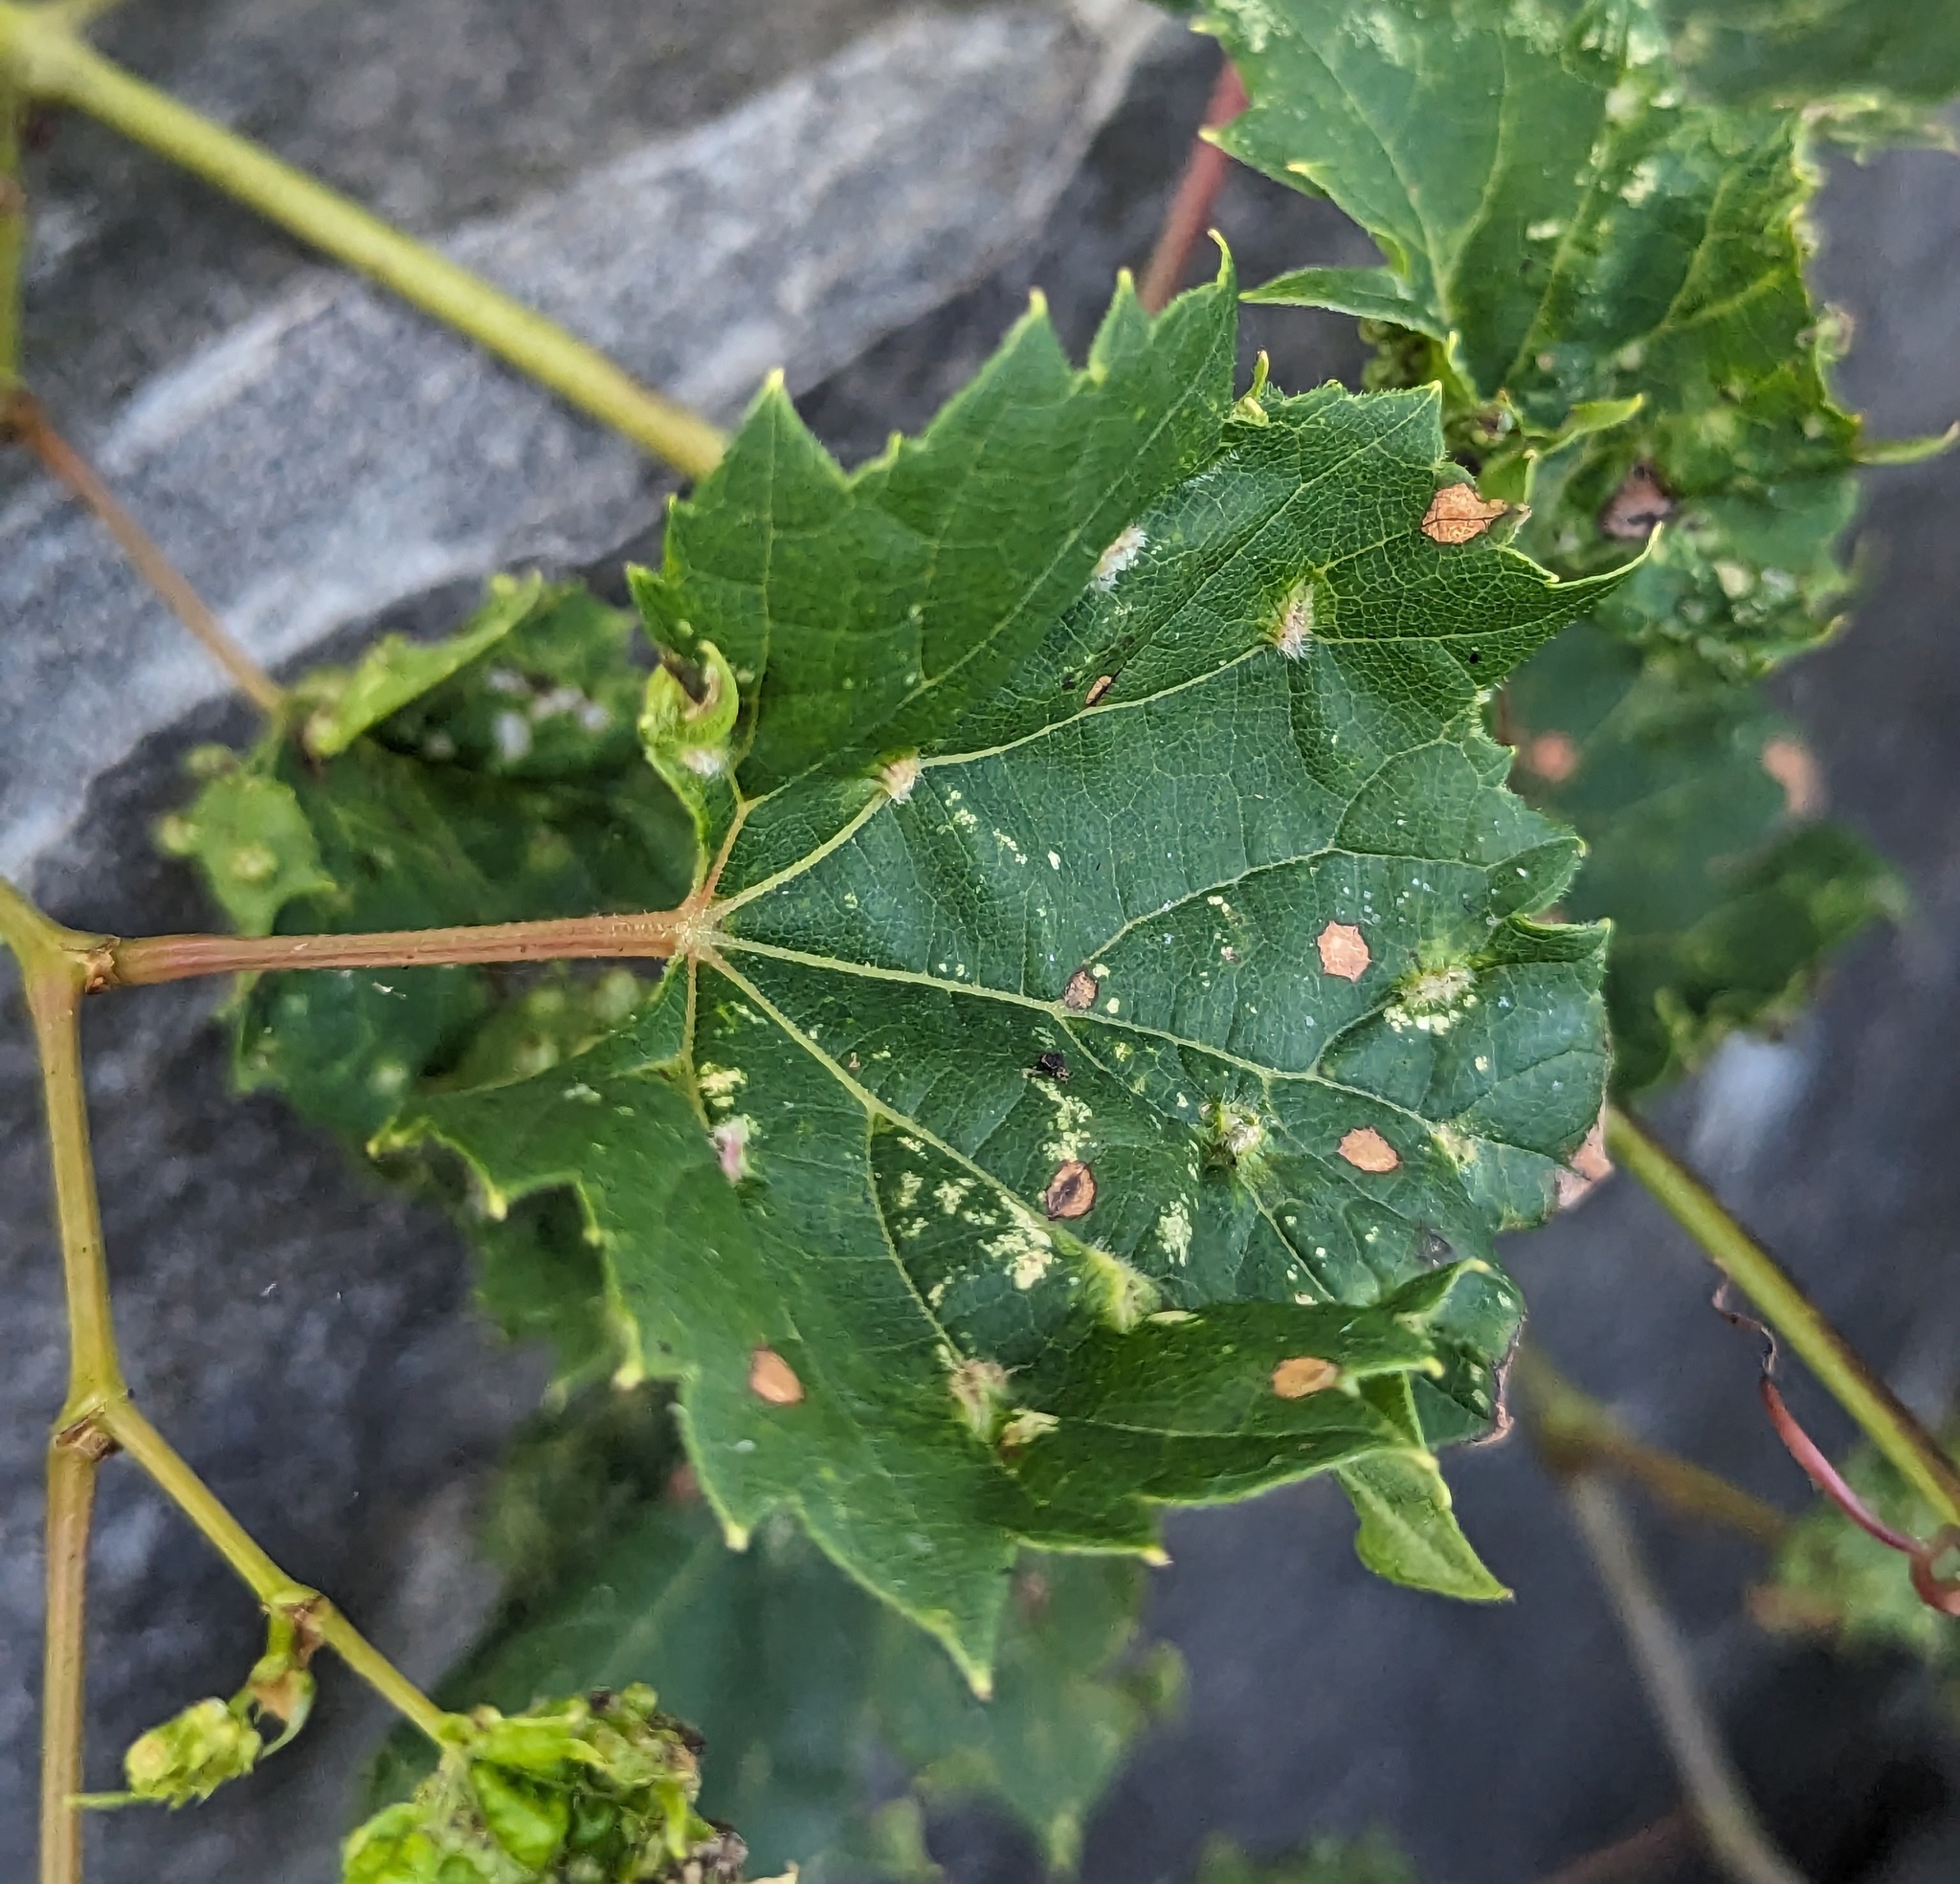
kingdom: Animalia
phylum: Arthropoda
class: Insecta
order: Hemiptera
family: Phylloxeridae
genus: Daktulosphaira
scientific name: Daktulosphaira vitifoliae
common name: Grape phylloxera
